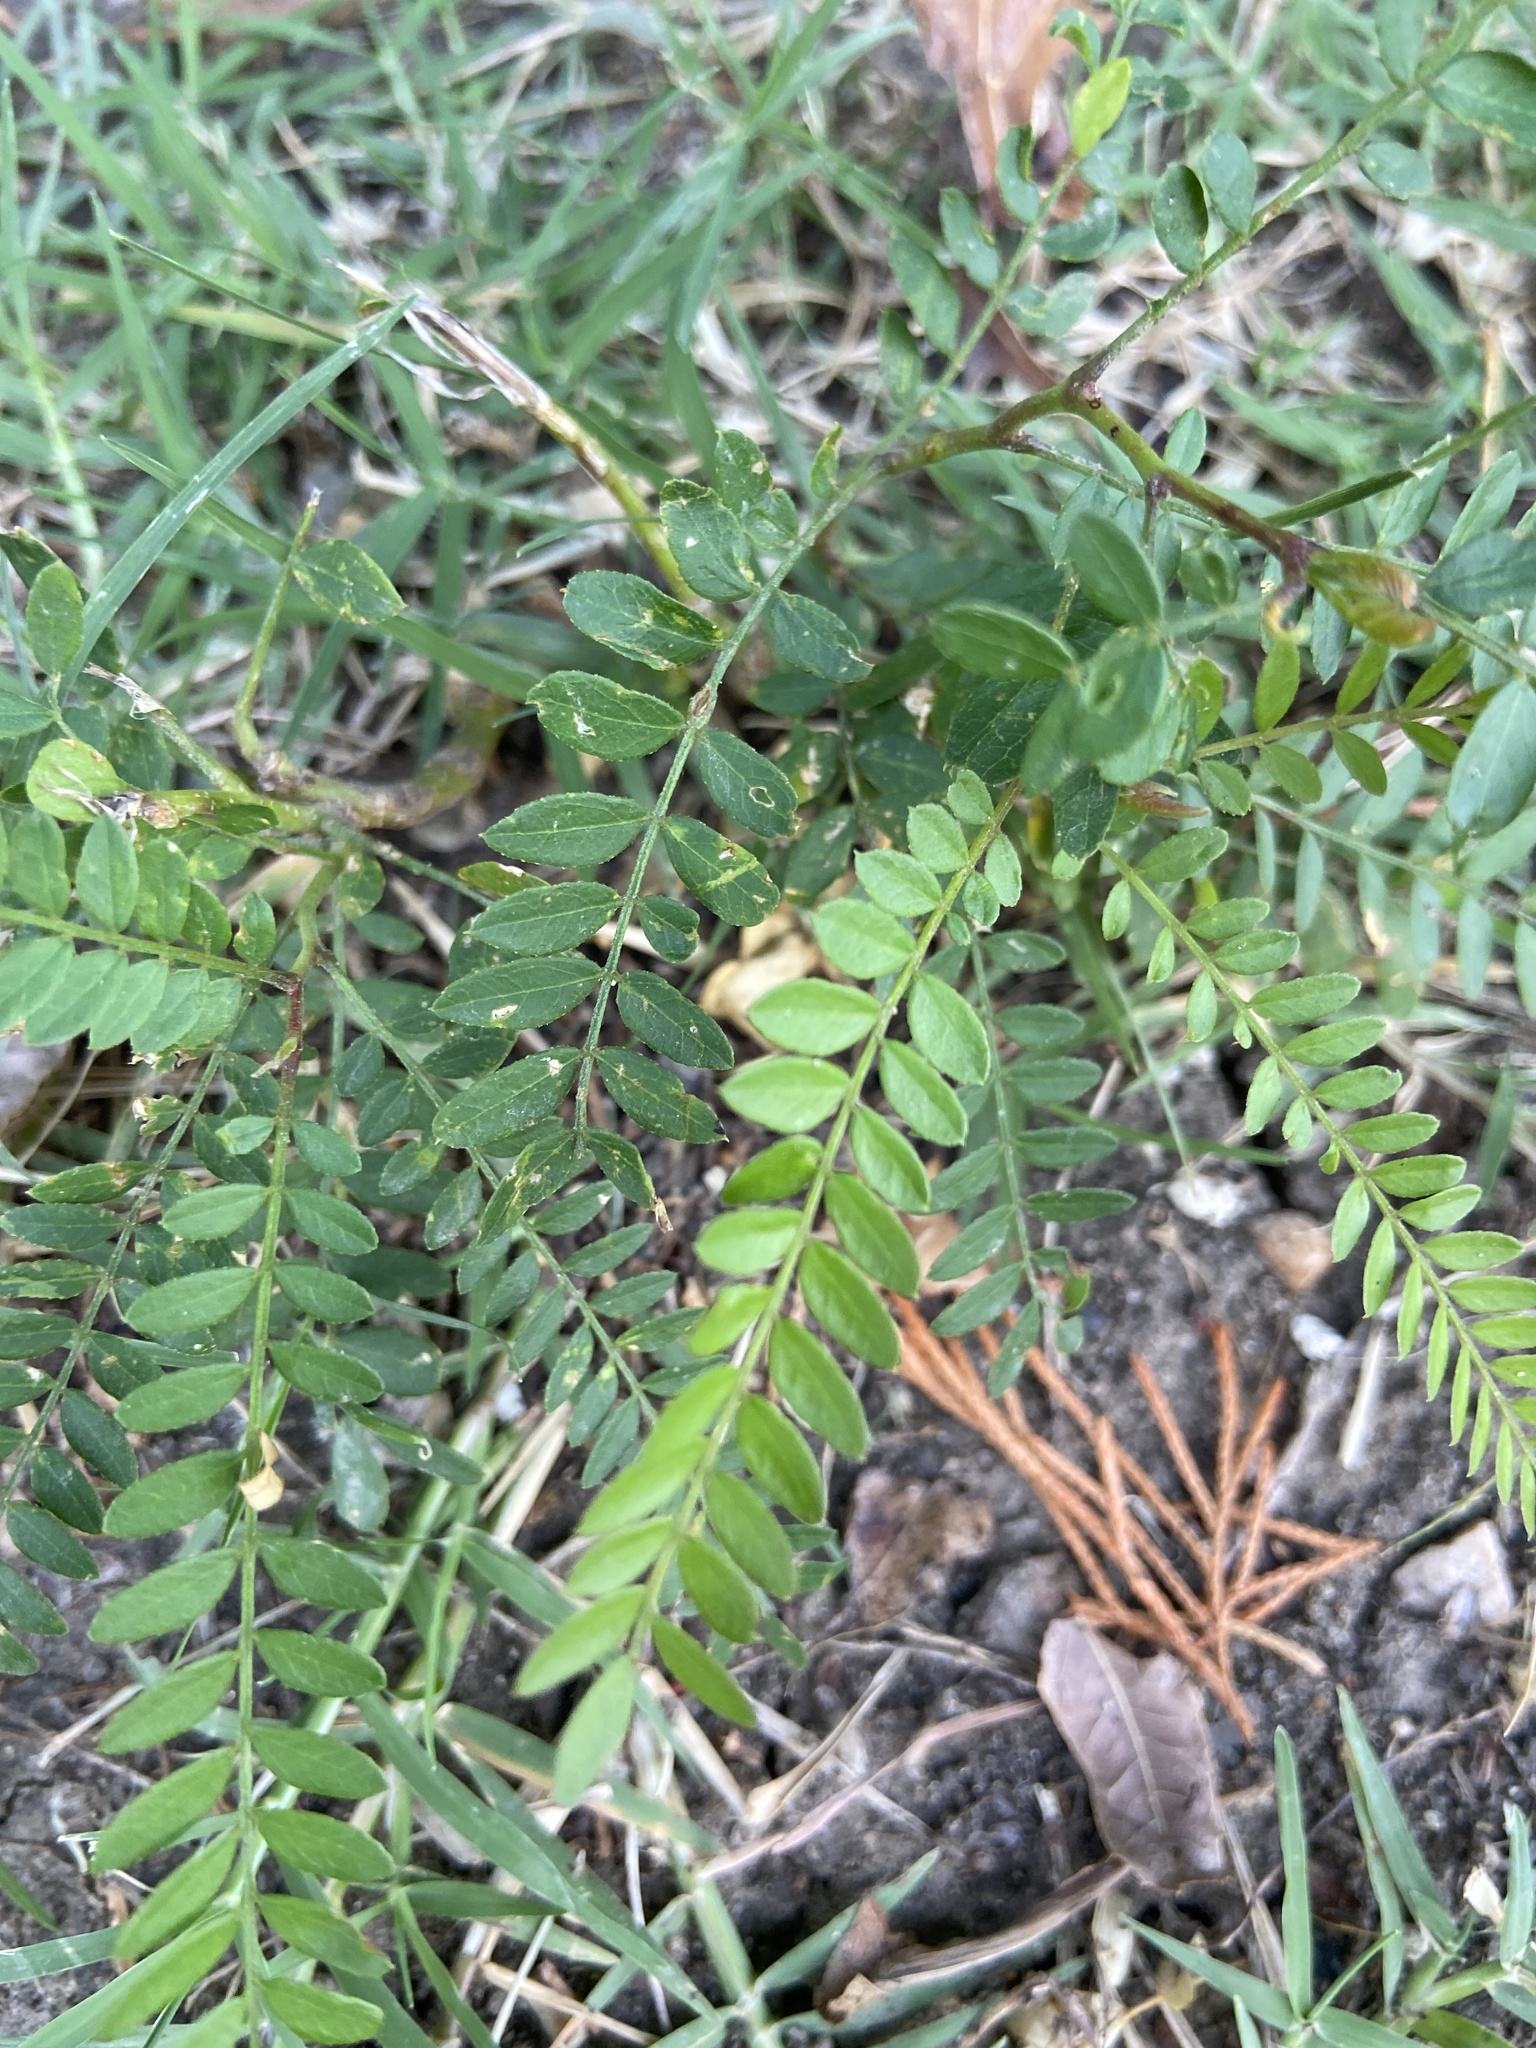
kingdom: Plantae
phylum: Tracheophyta
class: Magnoliopsida
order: Fabales
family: Fabaceae
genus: Gleditsia
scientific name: Gleditsia triacanthos
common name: Common honeylocust
